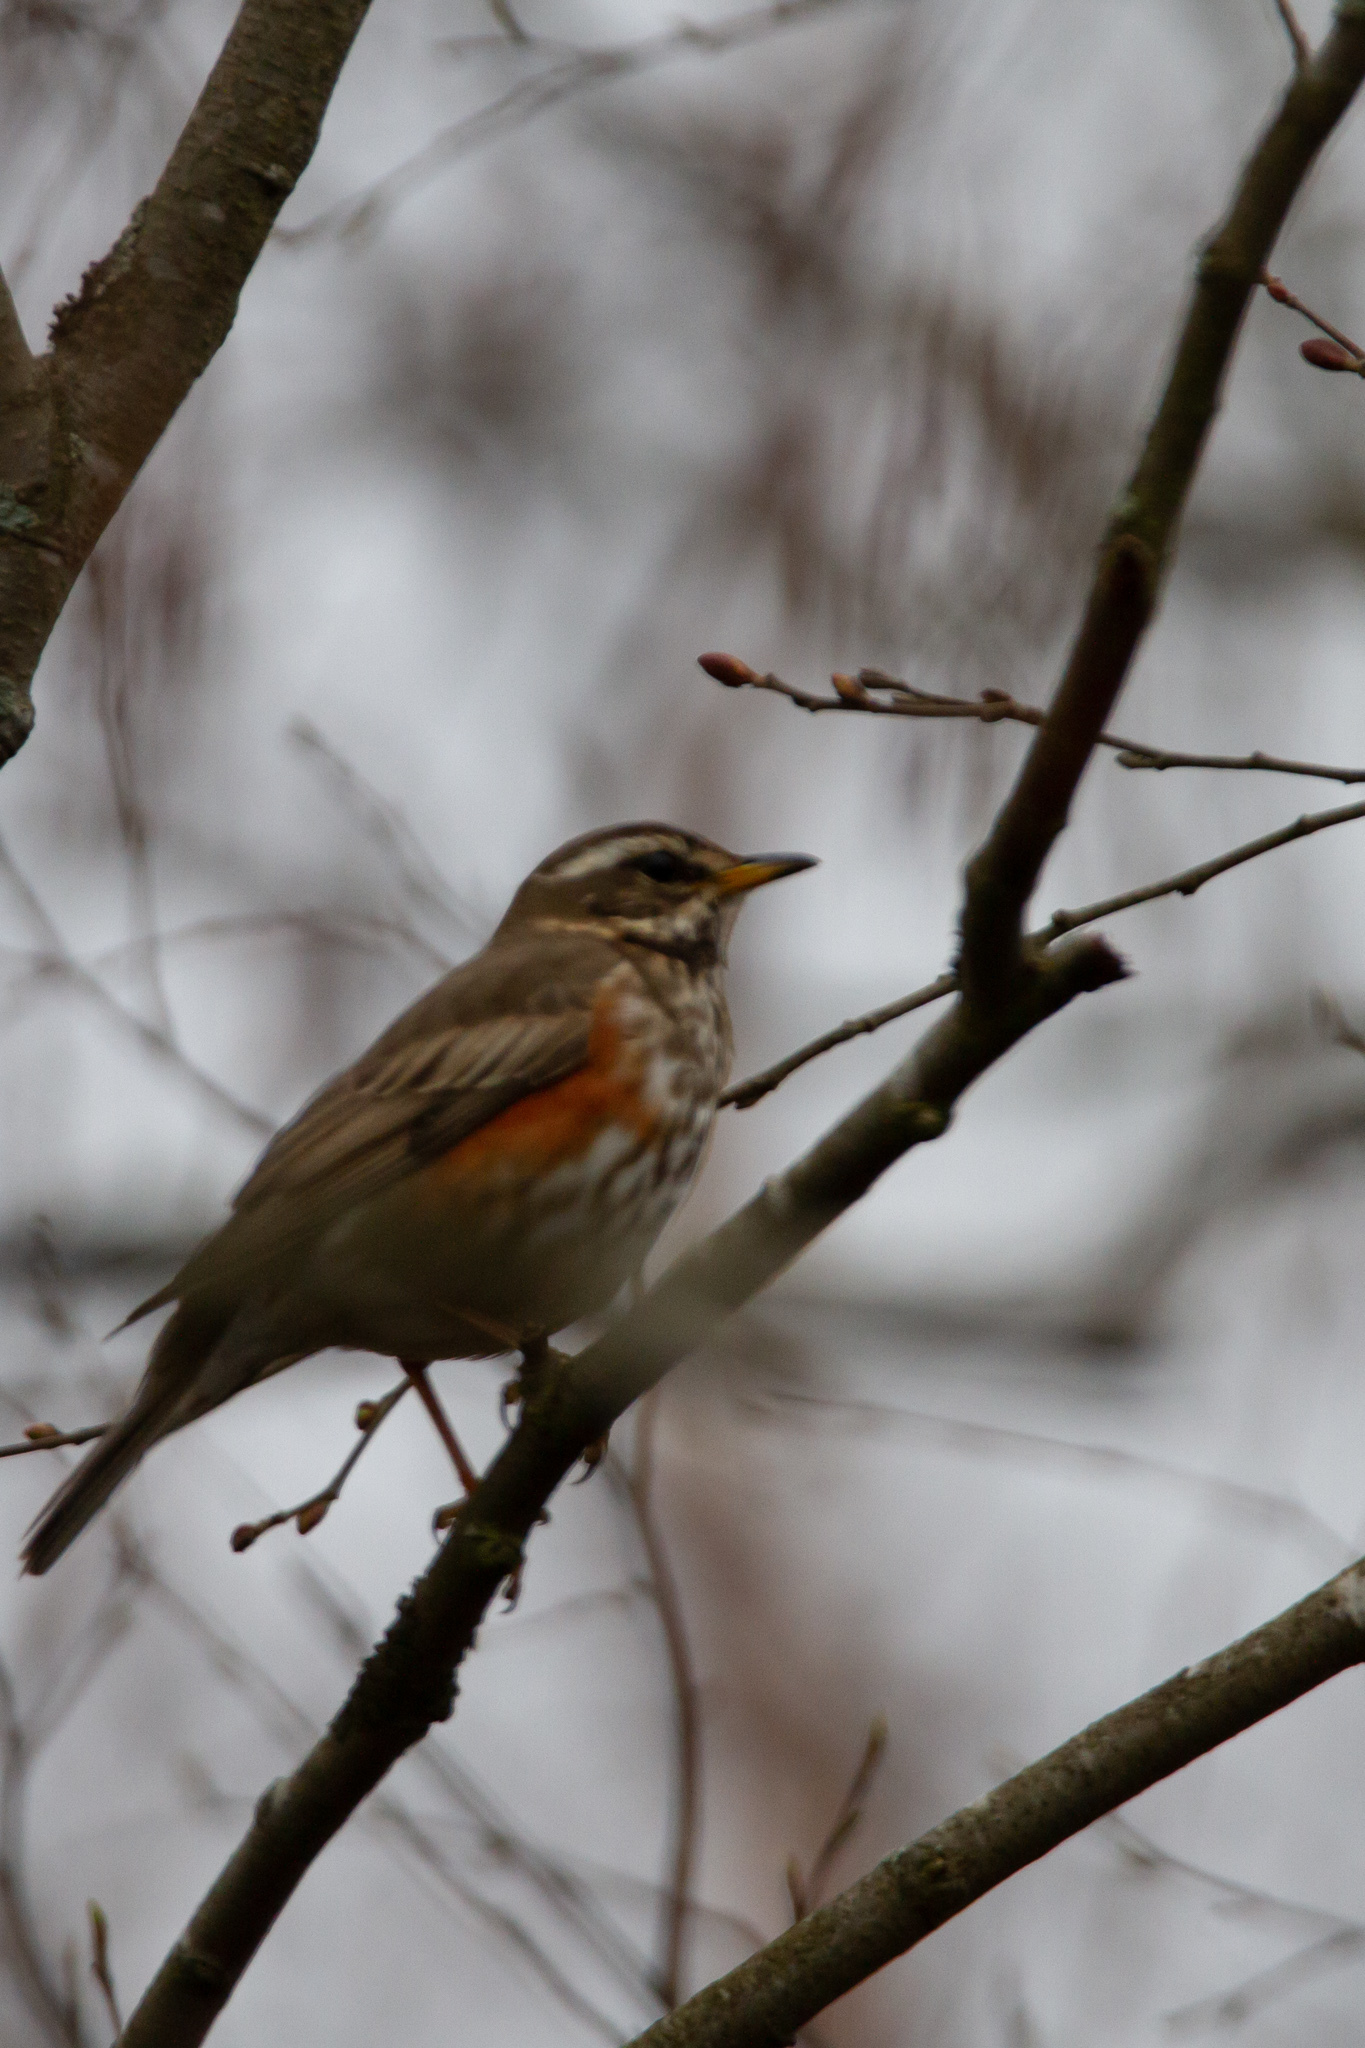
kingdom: Animalia
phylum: Chordata
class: Aves
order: Passeriformes
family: Turdidae
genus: Turdus
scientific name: Turdus iliacus
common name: Redwing
